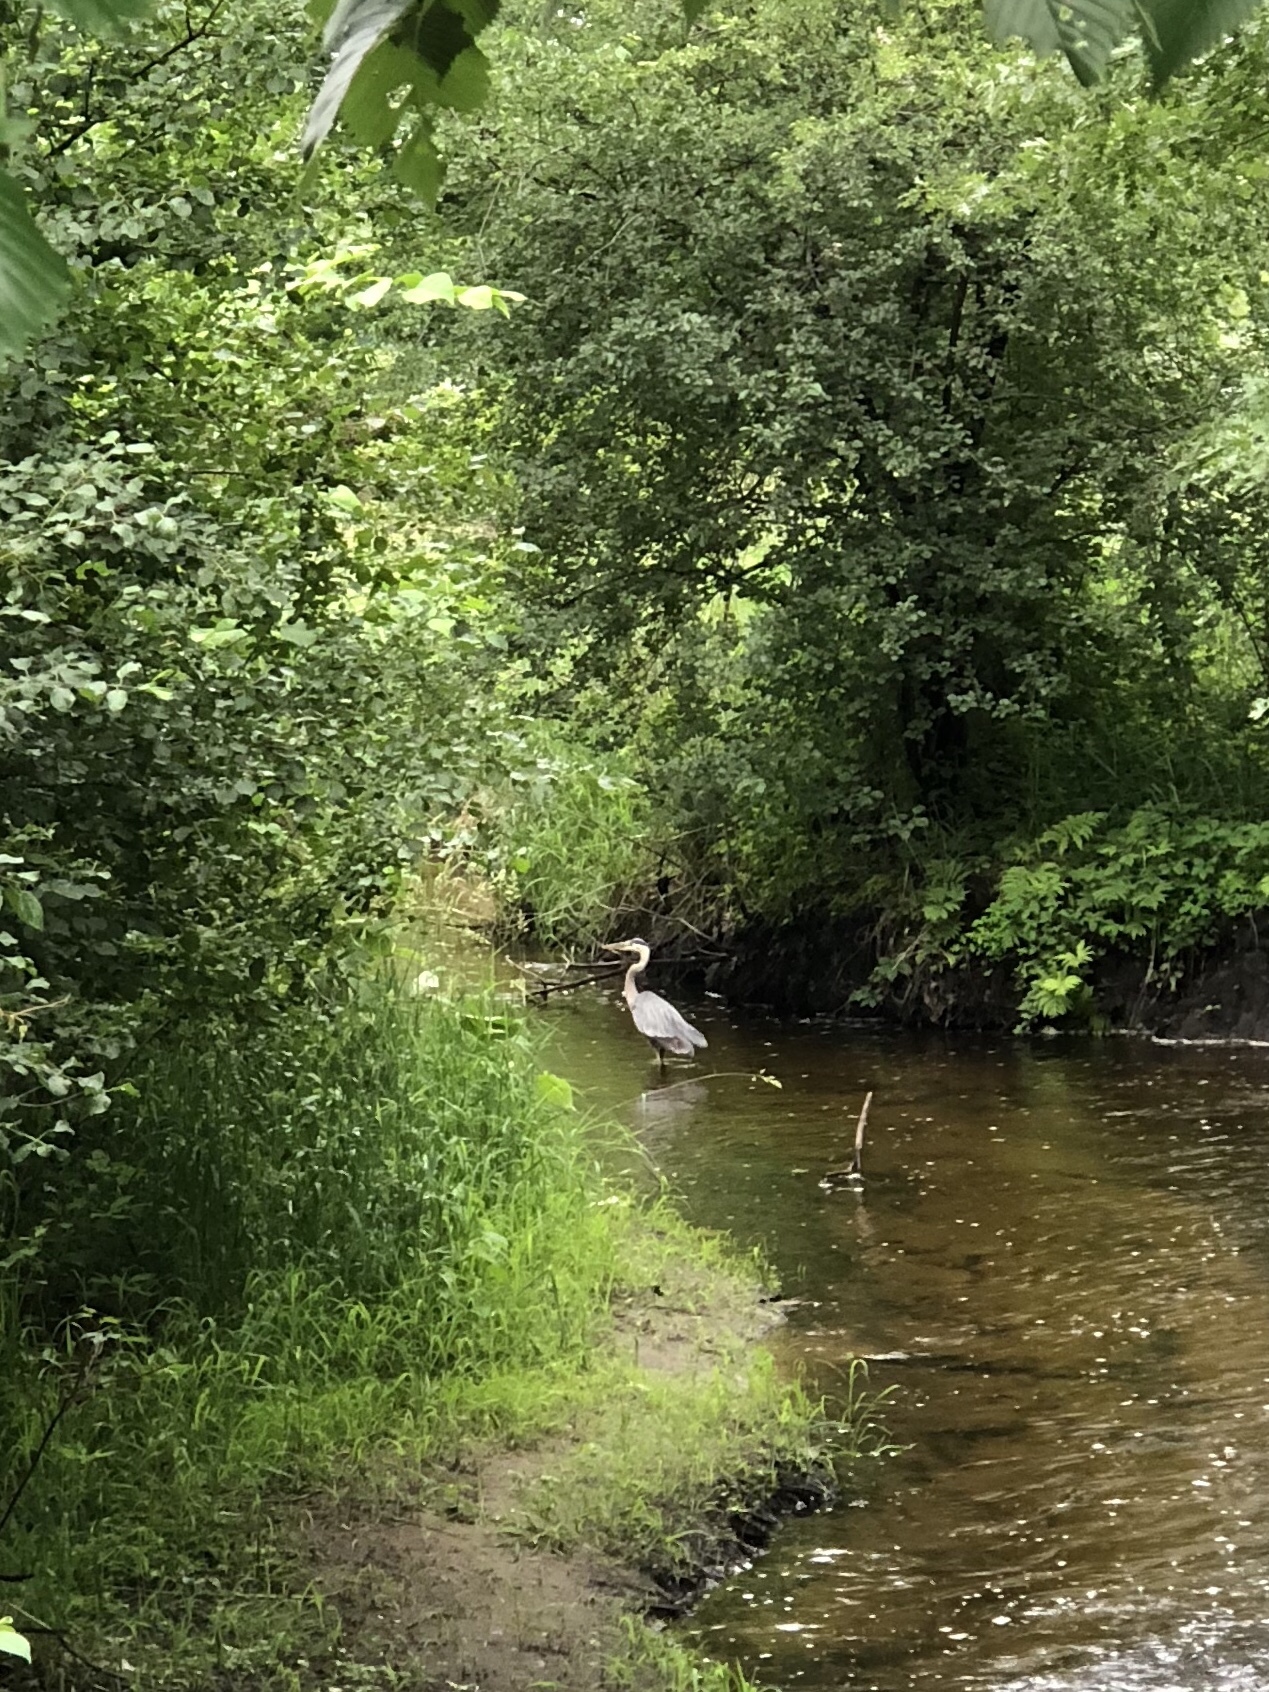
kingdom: Animalia
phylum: Chordata
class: Aves
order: Pelecaniformes
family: Ardeidae
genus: Ardea
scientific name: Ardea herodias
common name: Great blue heron
